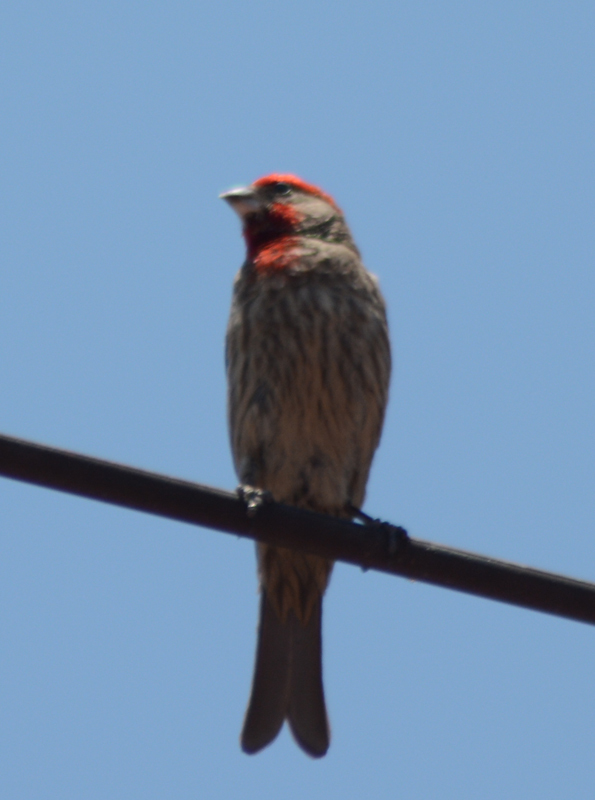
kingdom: Animalia
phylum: Chordata
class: Aves
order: Passeriformes
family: Fringillidae
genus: Haemorhous
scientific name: Haemorhous mexicanus
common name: House finch
